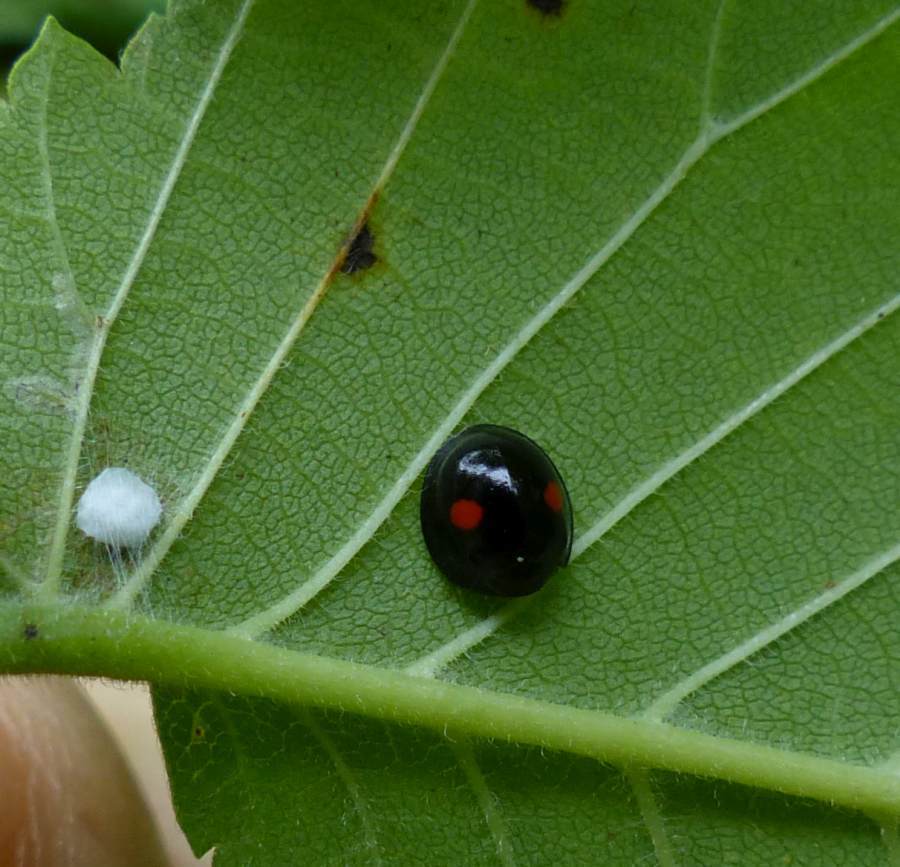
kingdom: Animalia
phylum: Arthropoda
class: Insecta
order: Coleoptera
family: Coccinellidae
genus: Chilocorus
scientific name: Chilocorus stigma
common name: Twicestabbed lady beetle
